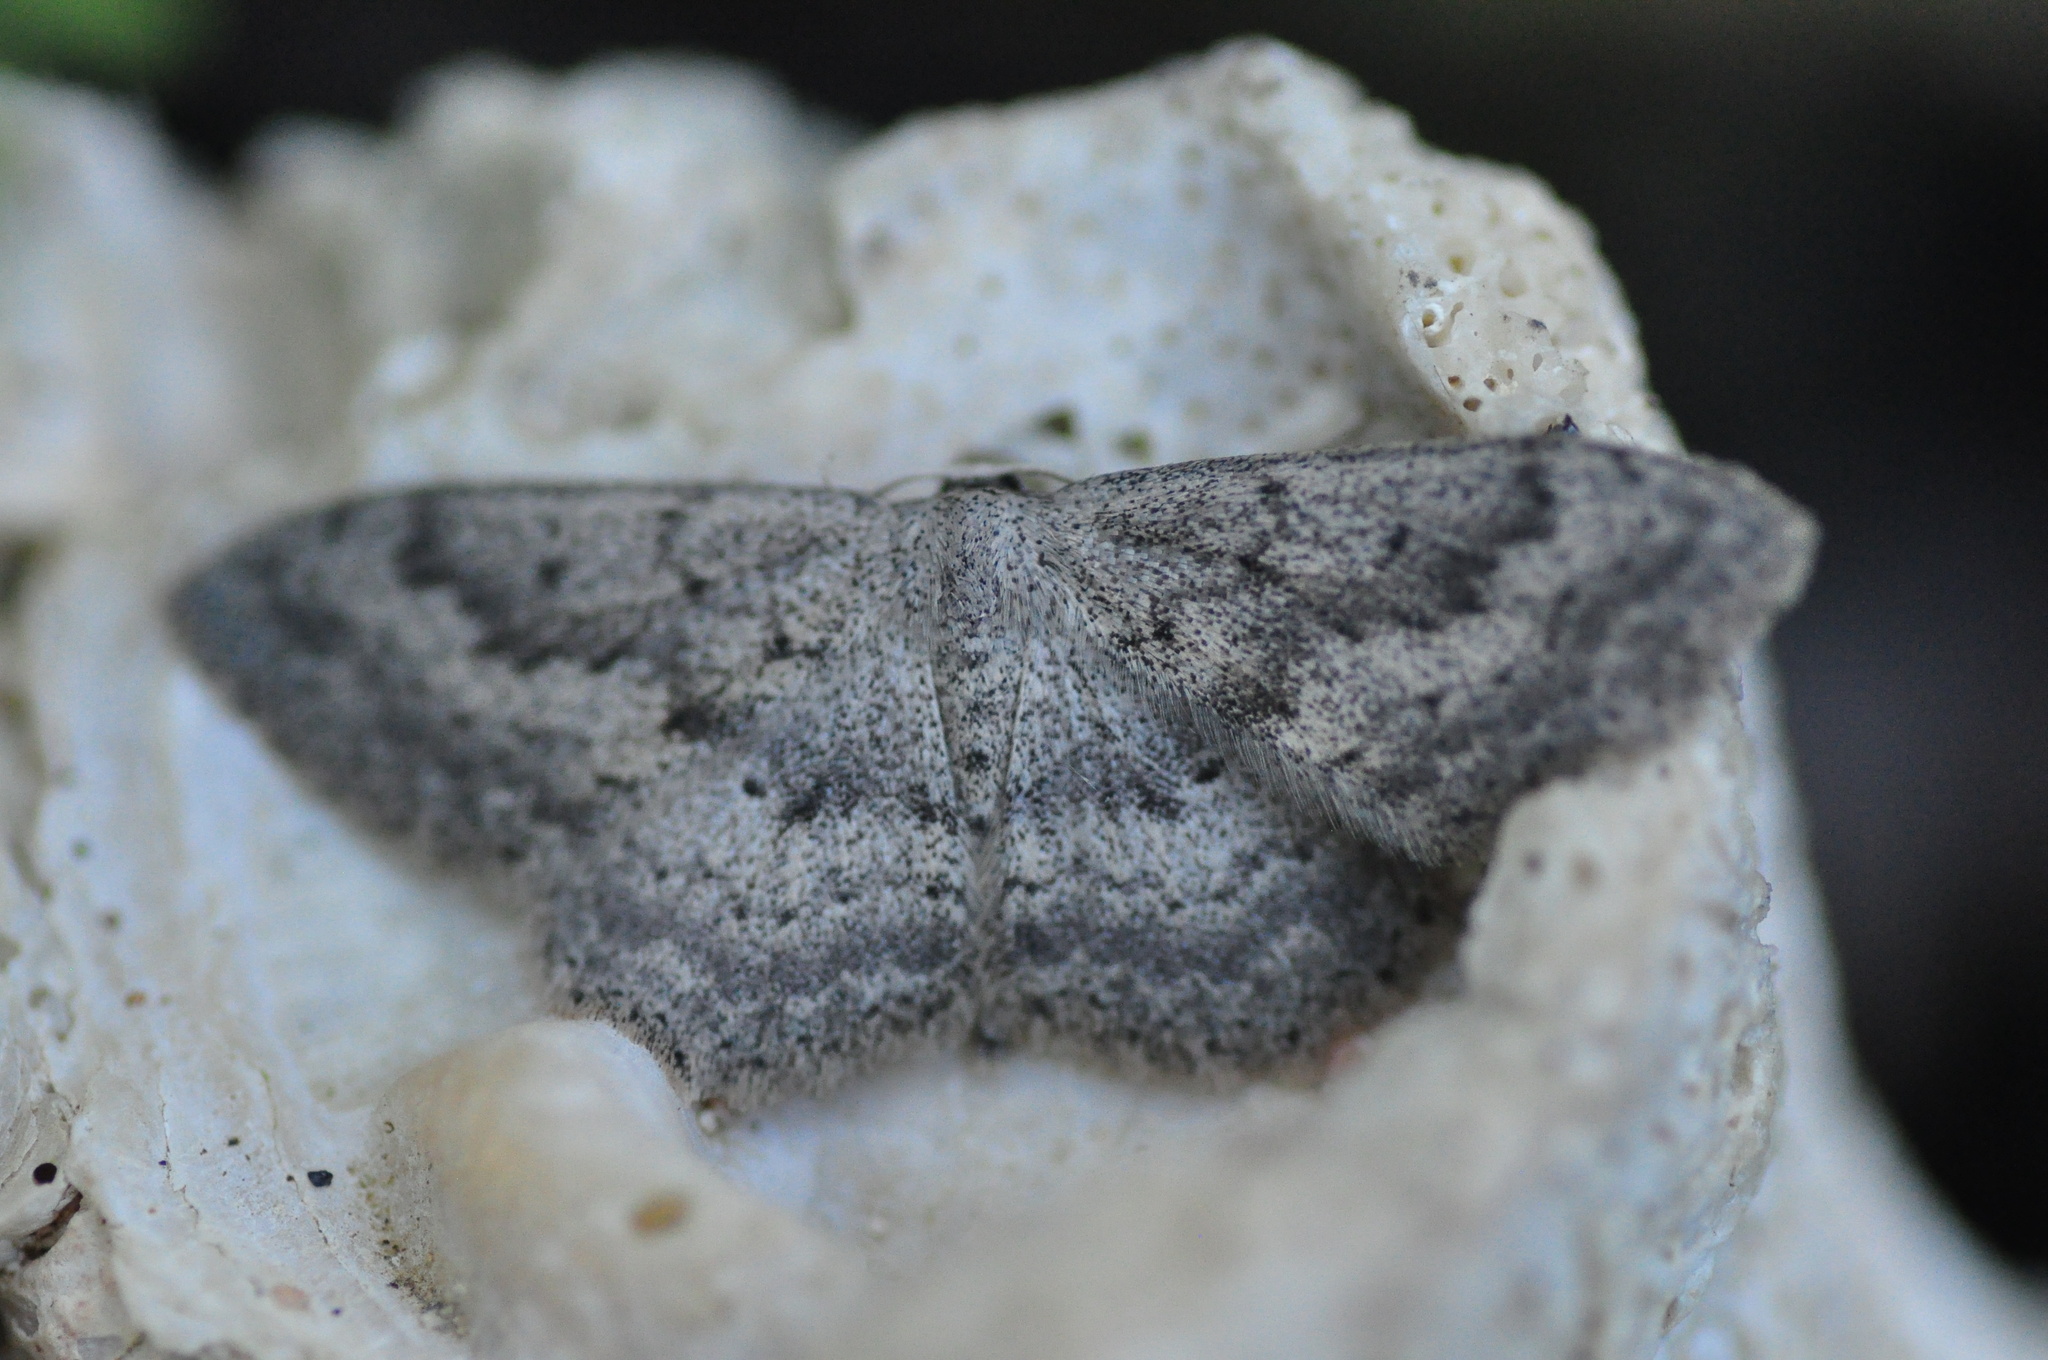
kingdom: Animalia
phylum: Arthropoda
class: Insecta
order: Lepidoptera
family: Geometridae
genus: Scopula
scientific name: Scopula guancharia
